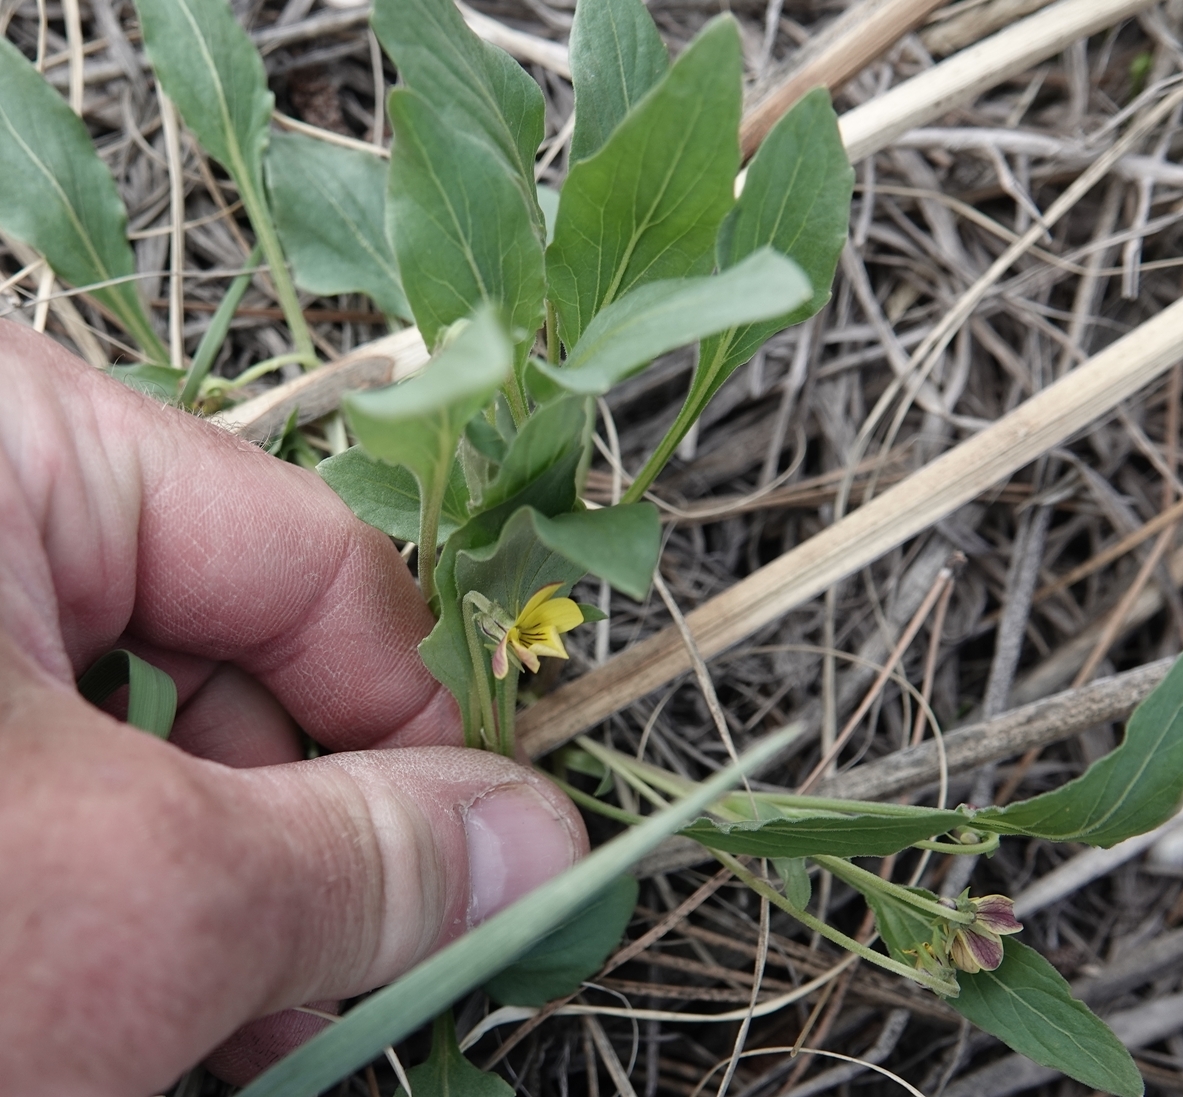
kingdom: Plantae
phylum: Tracheophyta
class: Magnoliopsida
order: Malpighiales
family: Violaceae
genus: Viola
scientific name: Viola nuttallii
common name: Yellow prairie violet
